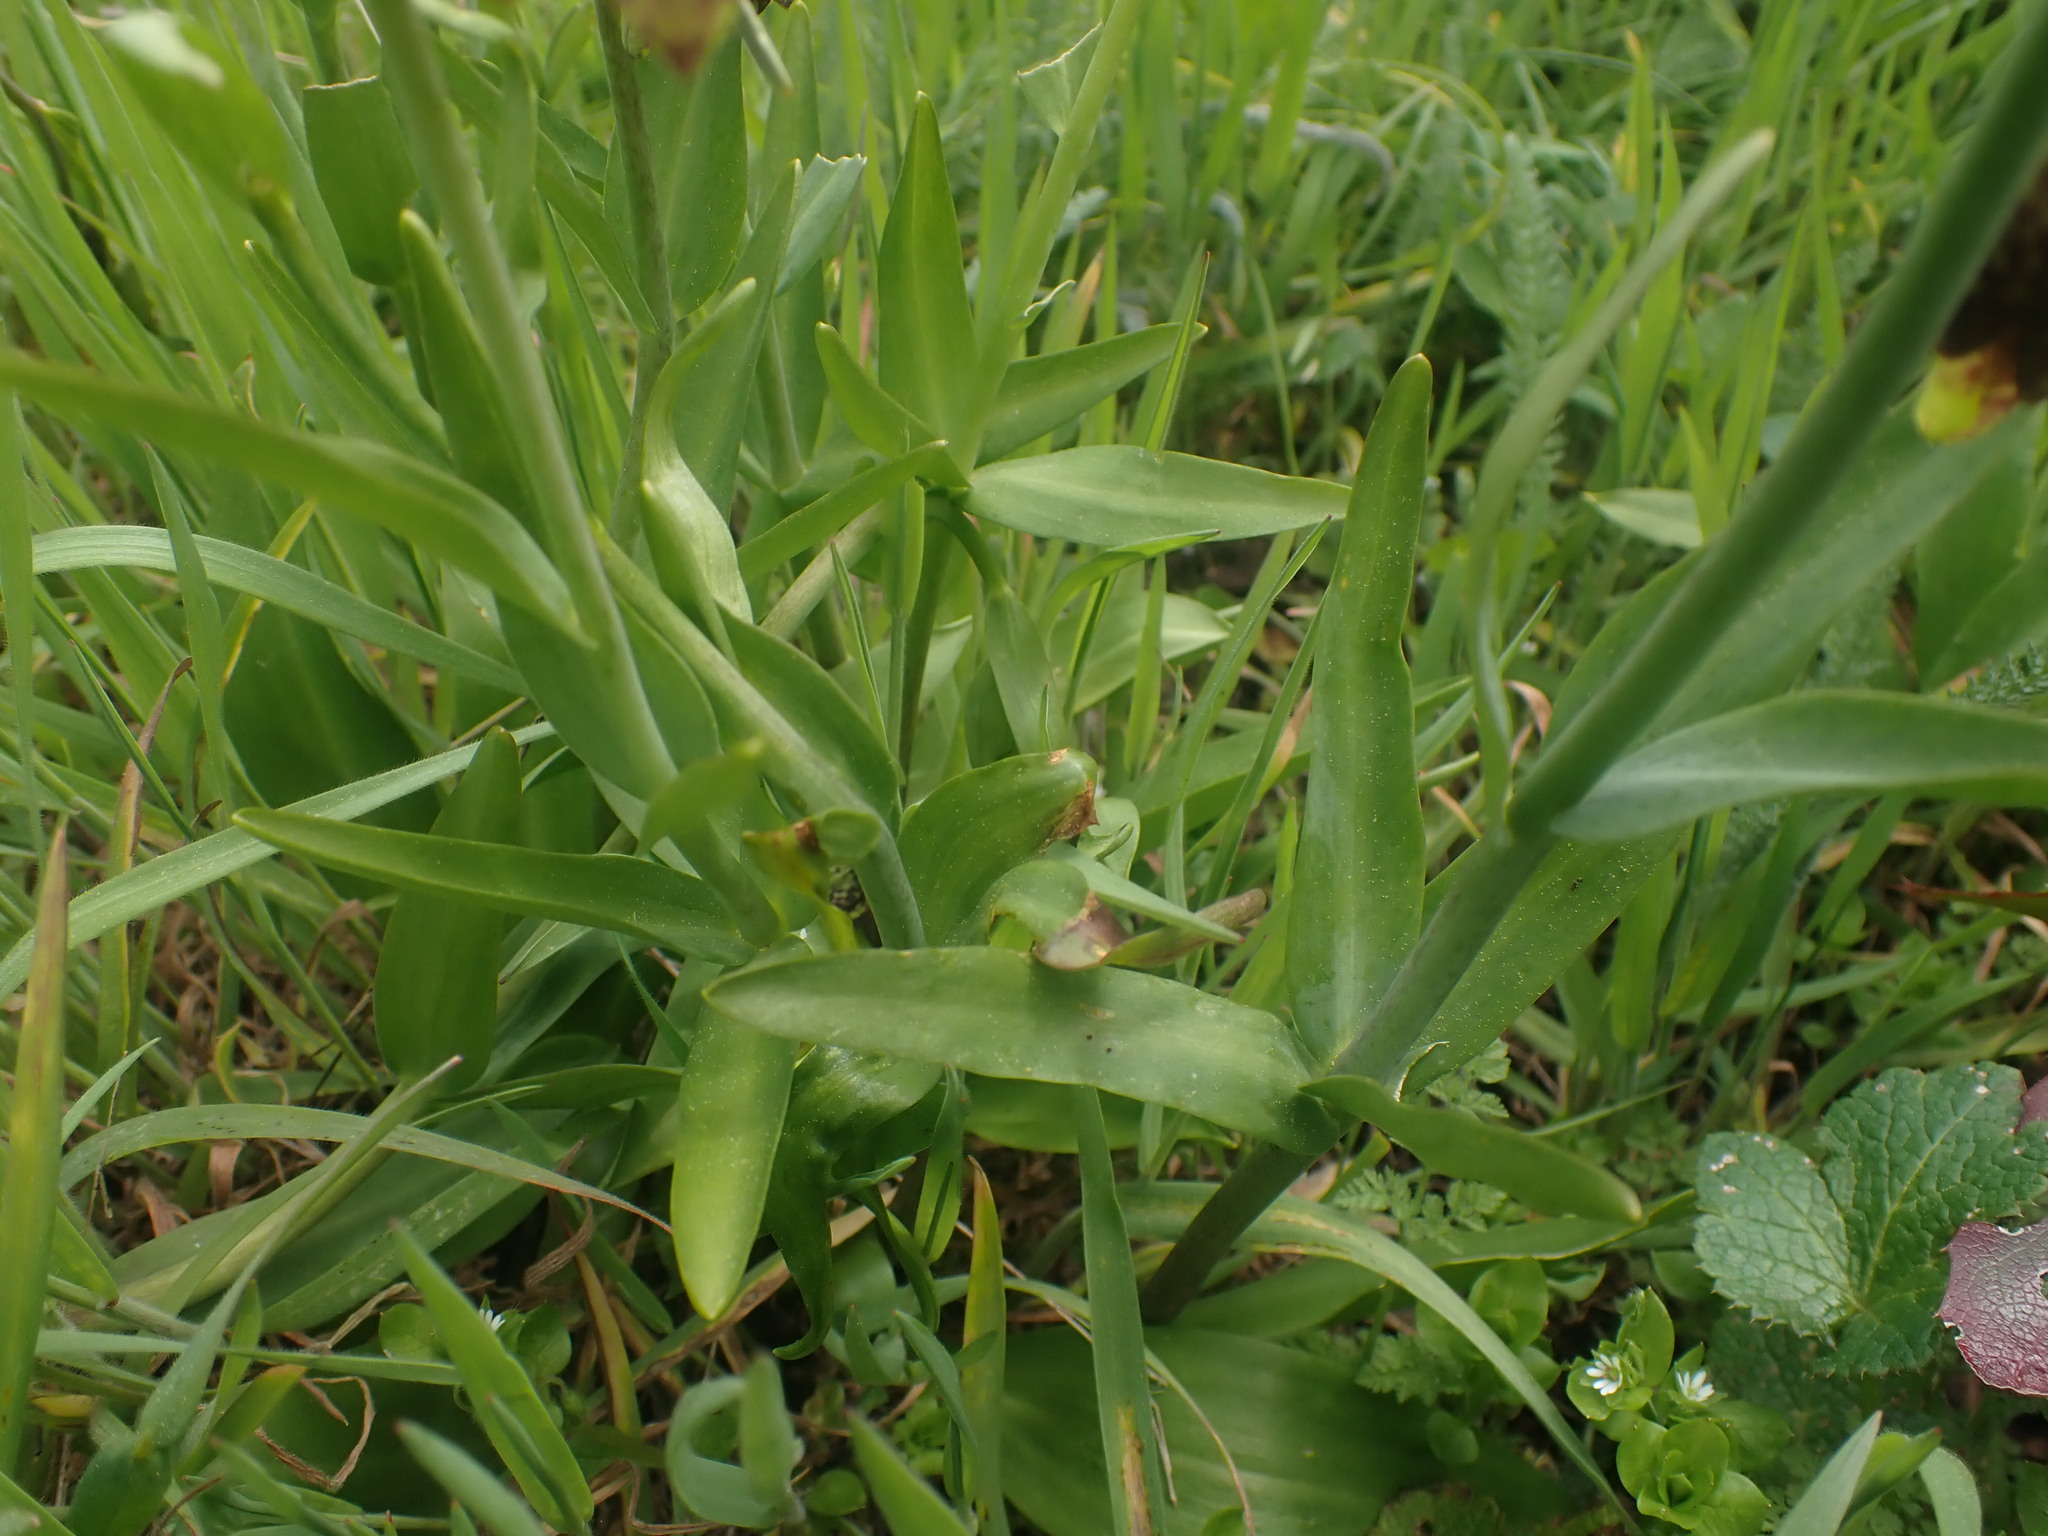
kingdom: Plantae
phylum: Tracheophyta
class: Liliopsida
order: Liliales
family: Liliaceae
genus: Fritillaria
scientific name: Fritillaria affinis
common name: Ojai fritillary
